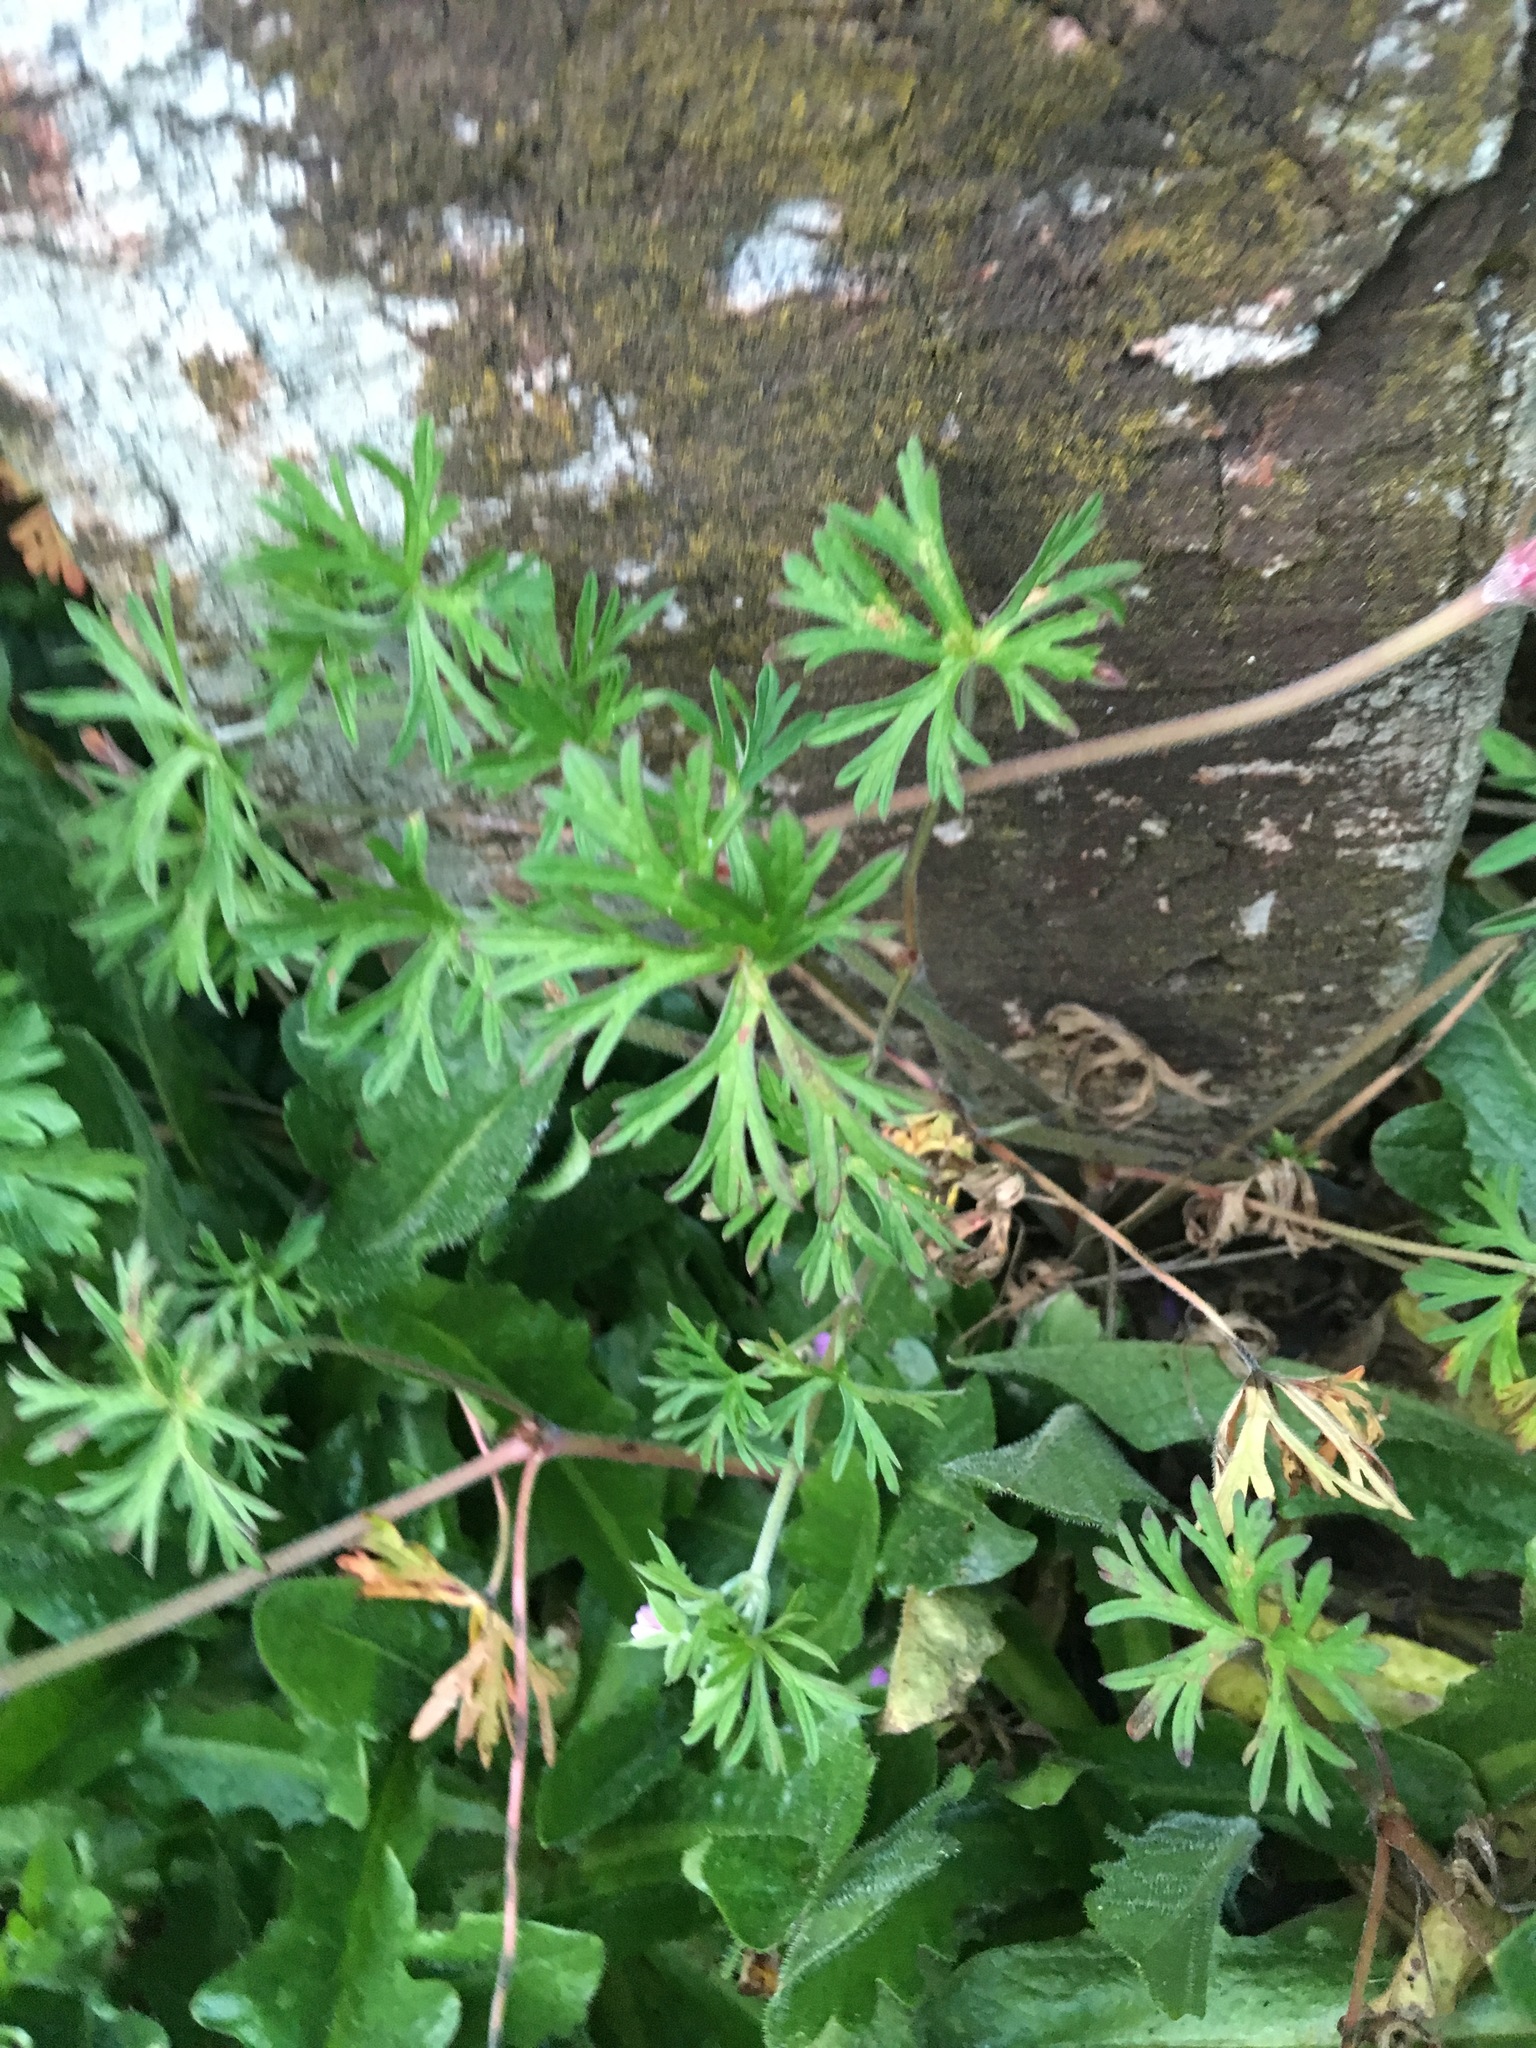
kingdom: Plantae
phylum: Tracheophyta
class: Magnoliopsida
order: Geraniales
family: Geraniaceae
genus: Geranium
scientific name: Geranium molle
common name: Dove's-foot crane's-bill
